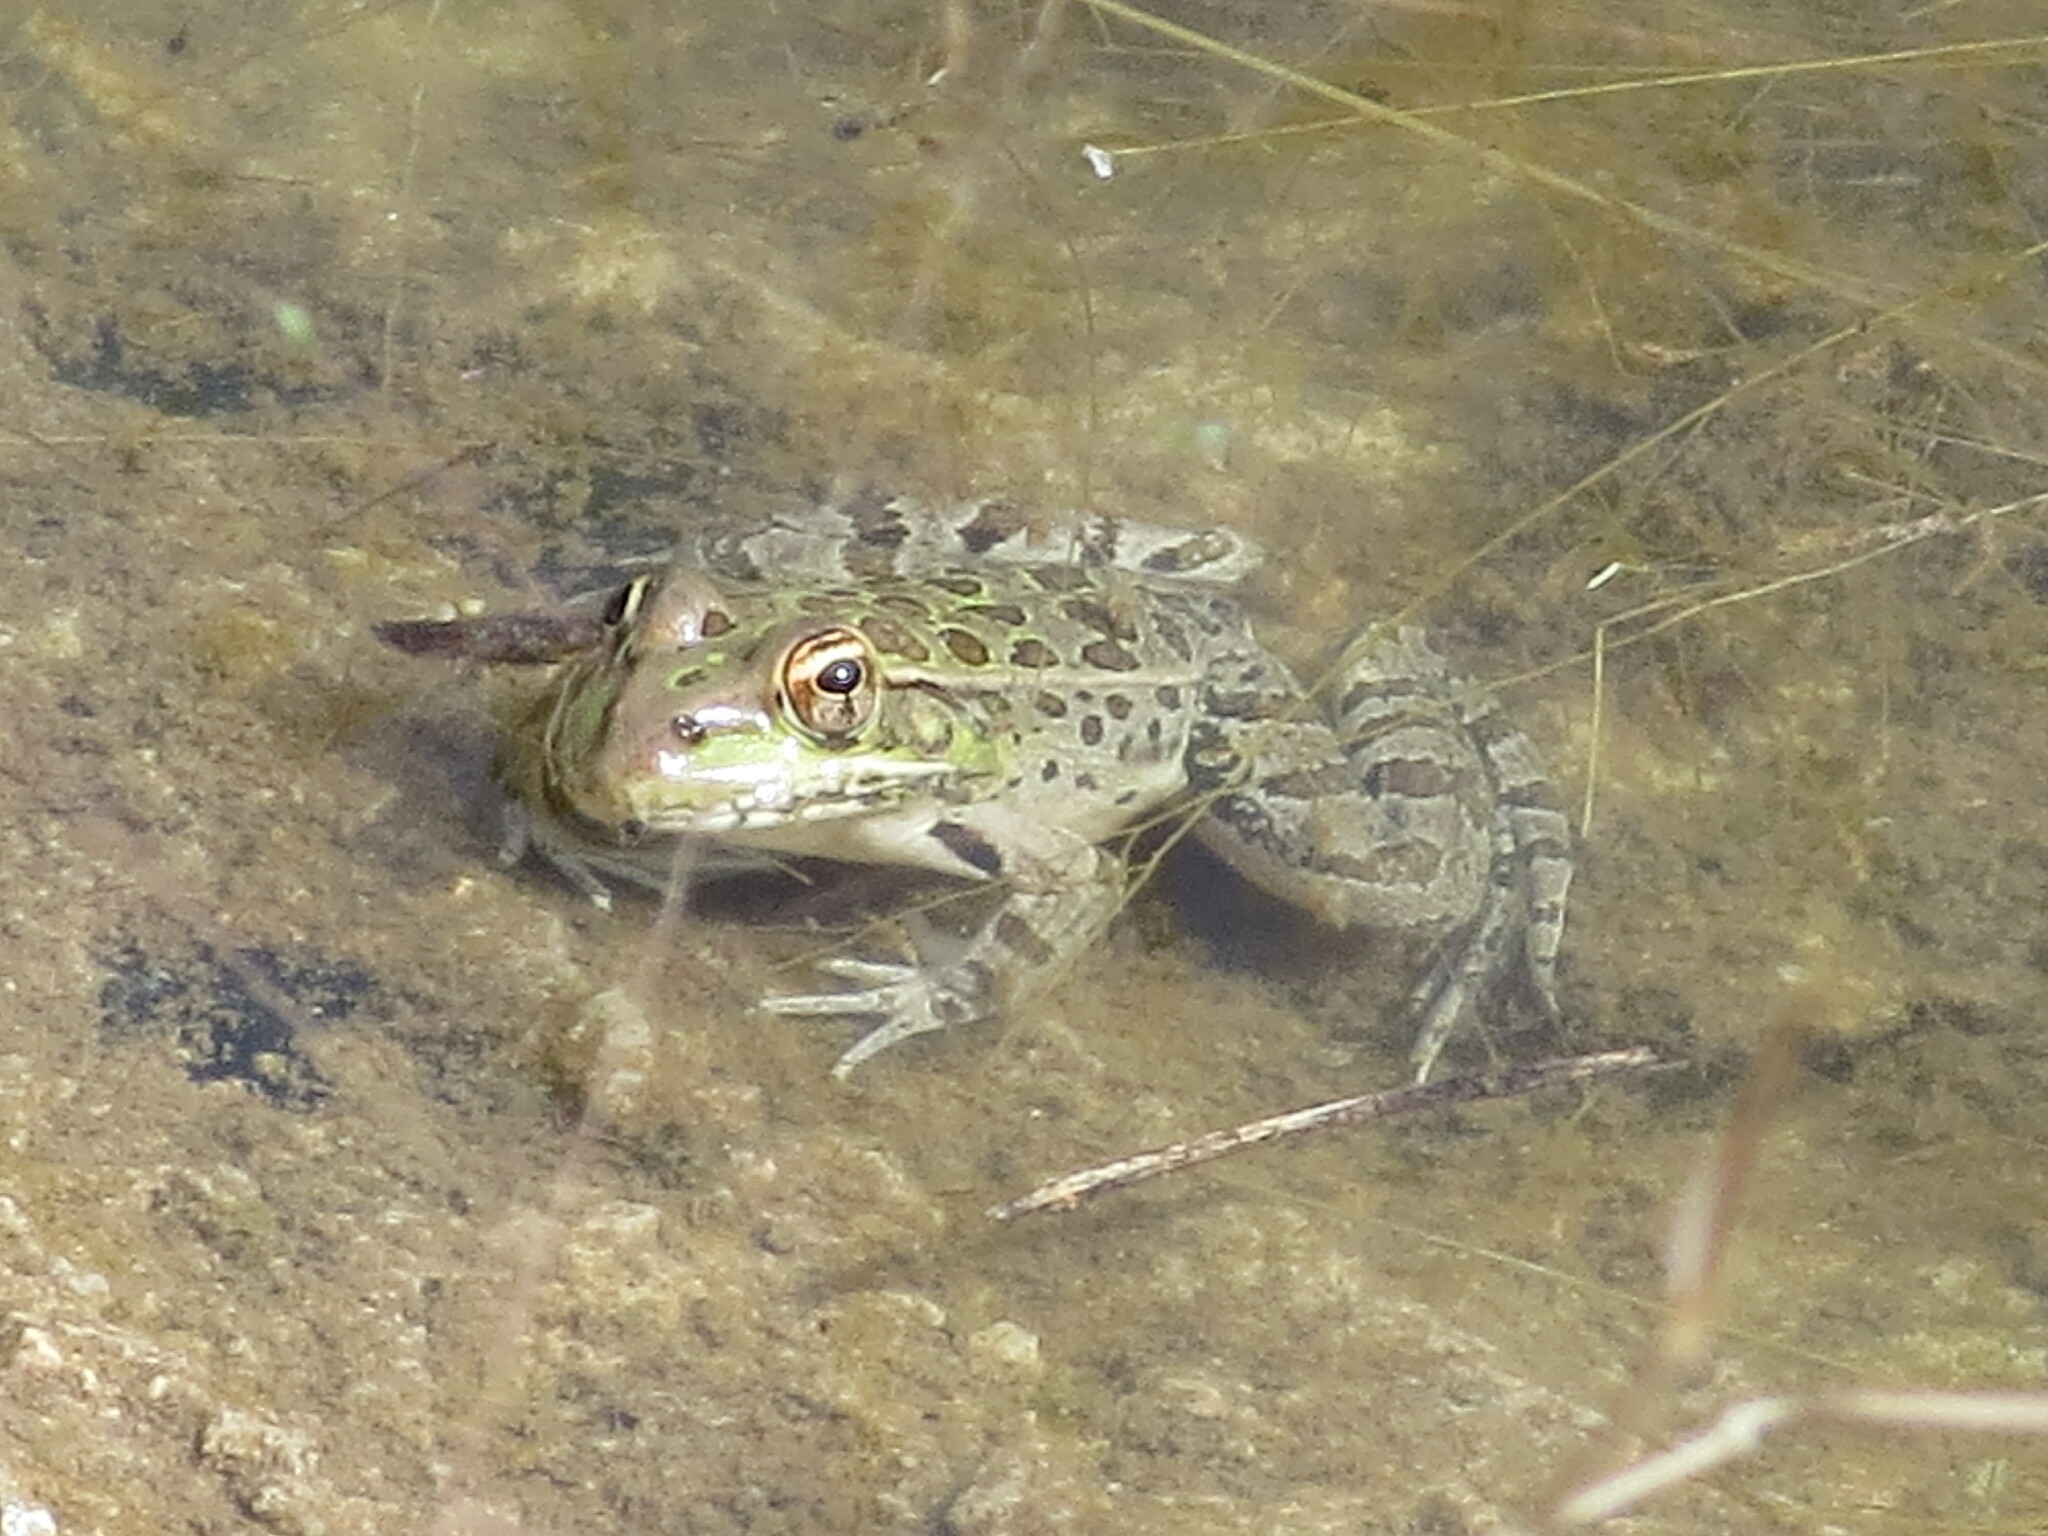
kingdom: Animalia
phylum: Chordata
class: Amphibia
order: Anura
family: Ranidae
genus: Lithobates
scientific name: Lithobates berlandieri
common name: Rio grande leopard frog
